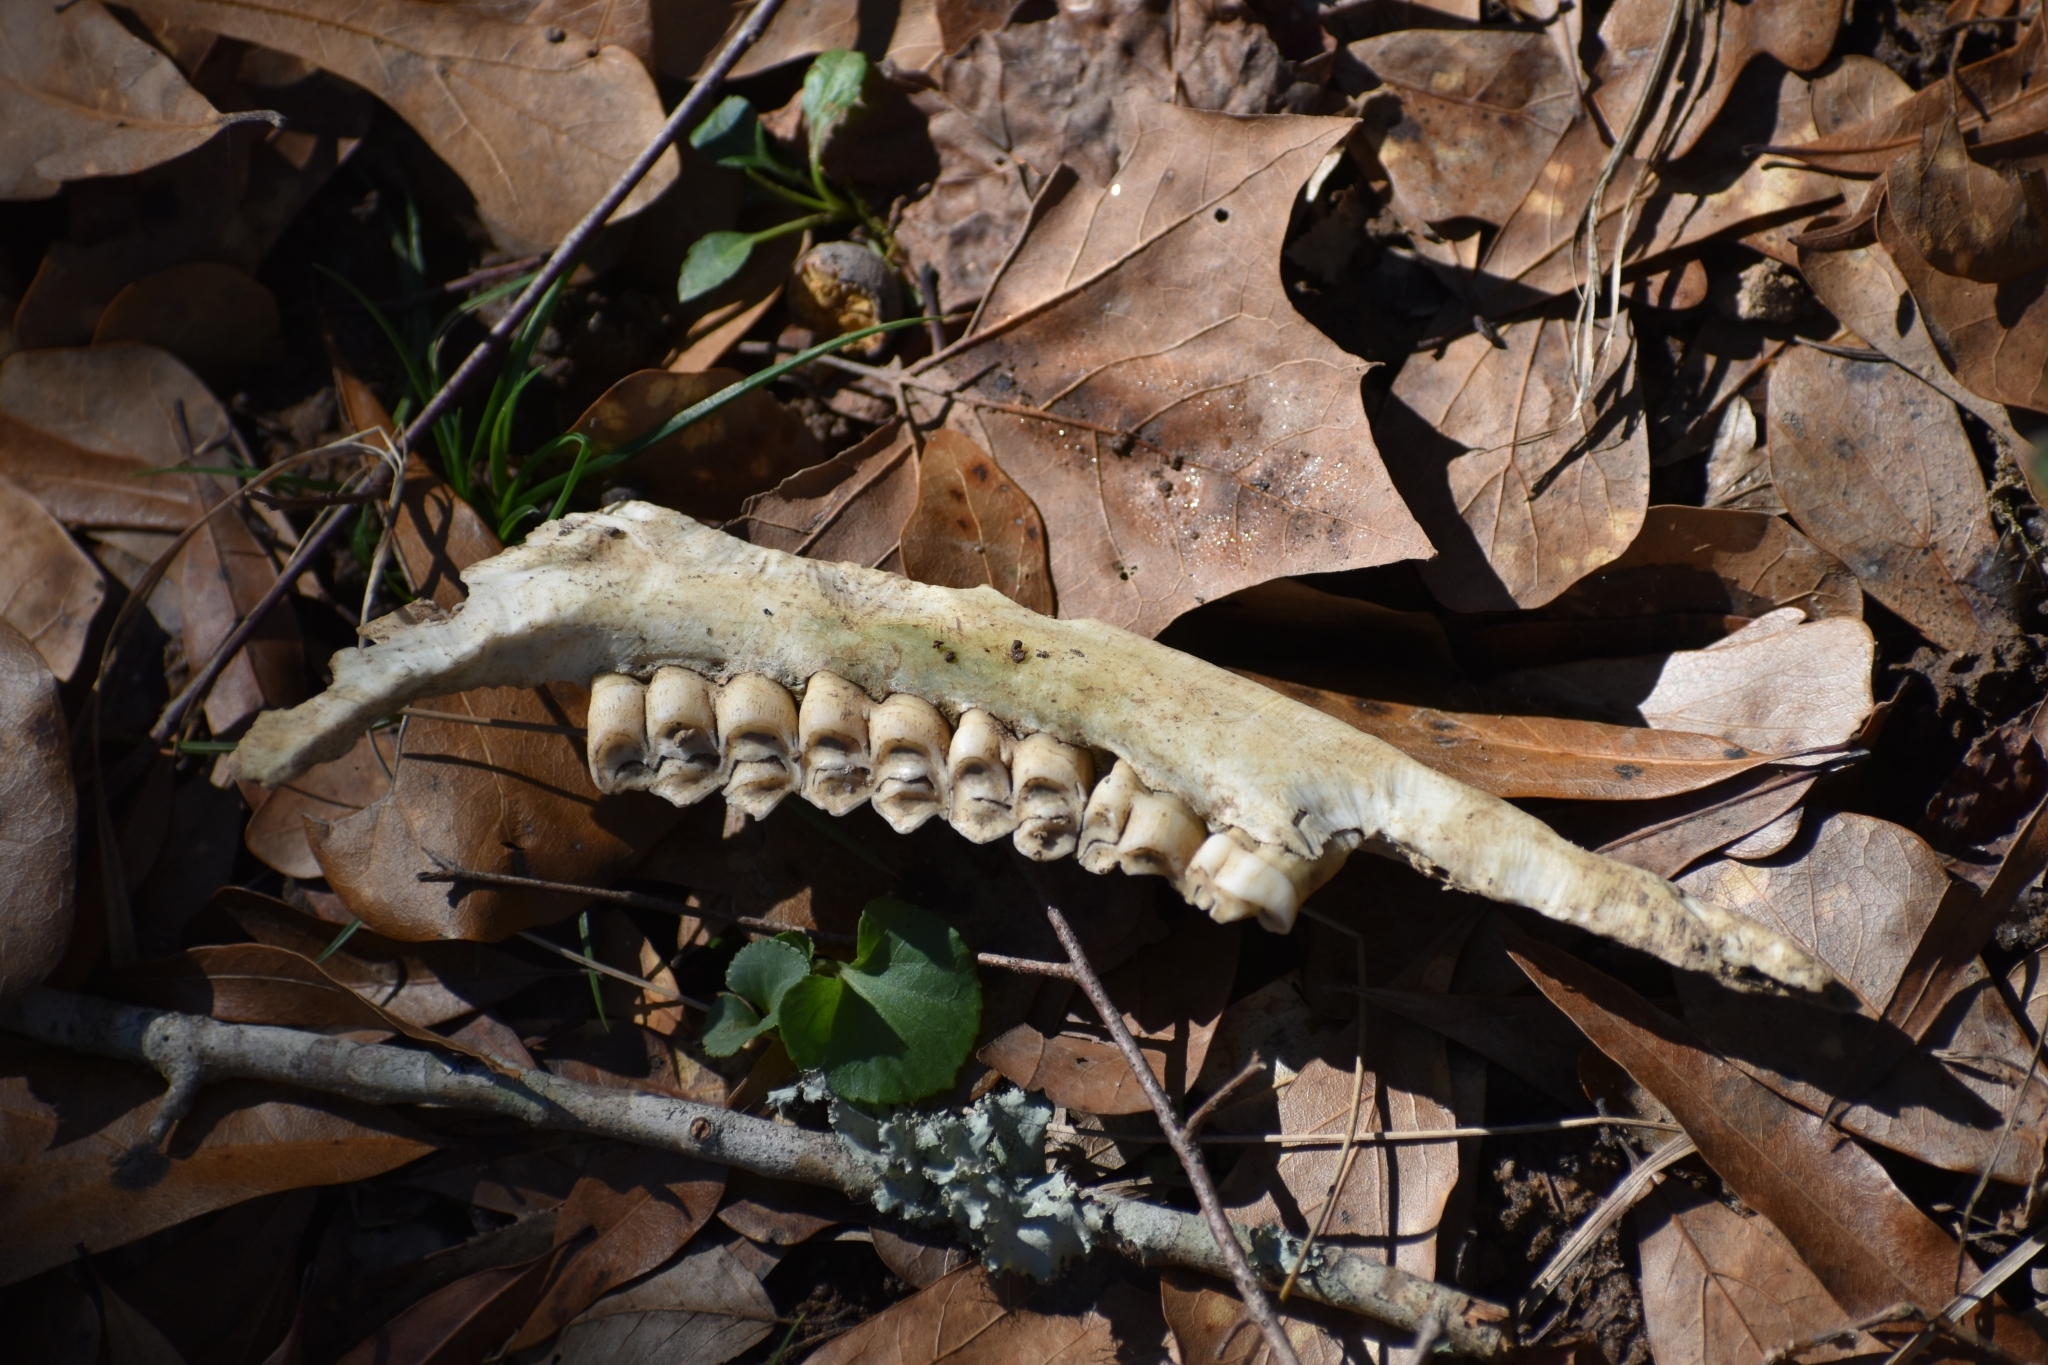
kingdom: Animalia
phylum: Chordata
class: Mammalia
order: Artiodactyla
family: Cervidae
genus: Odocoileus
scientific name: Odocoileus virginianus
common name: White-tailed deer
